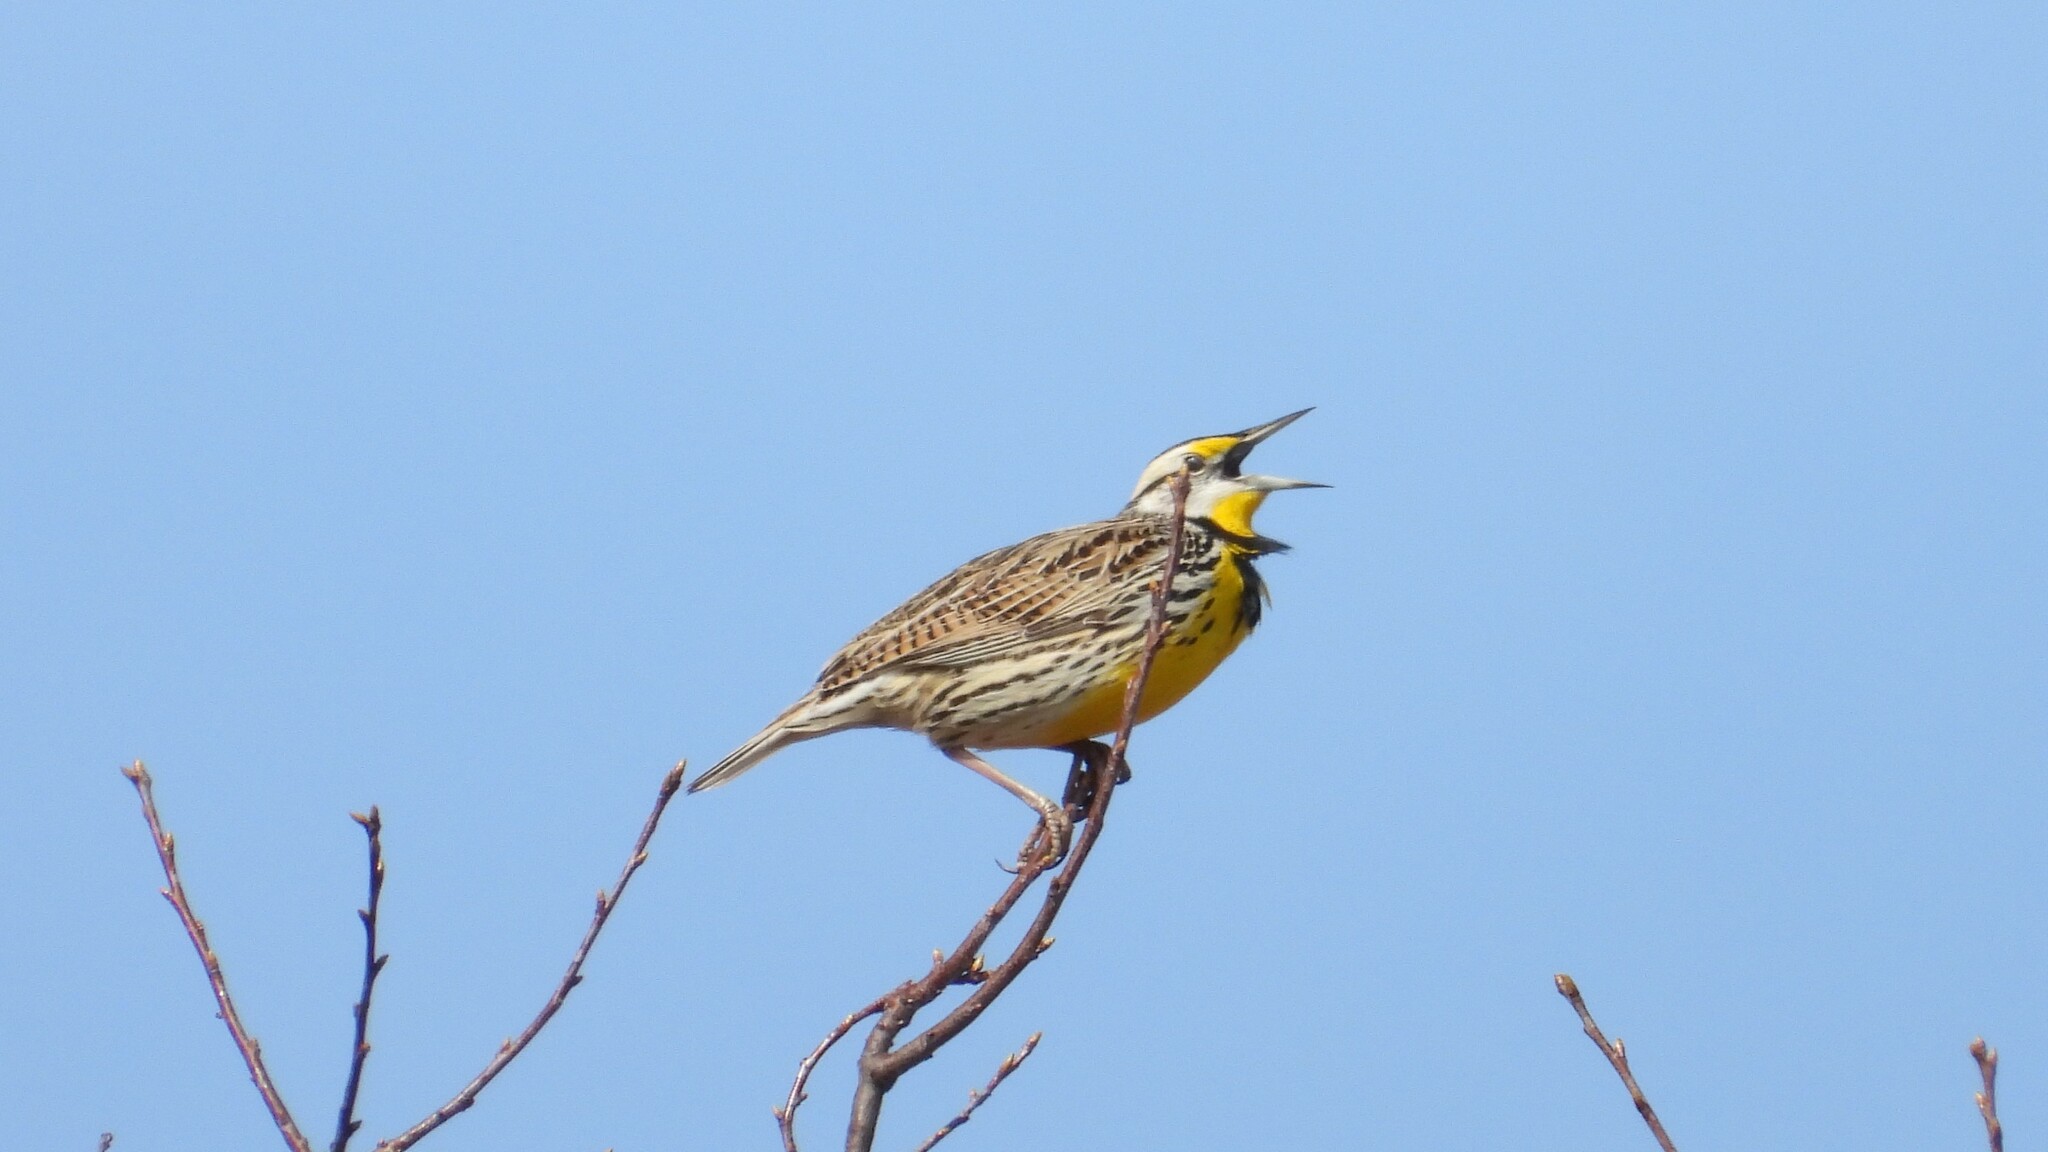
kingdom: Animalia
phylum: Chordata
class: Aves
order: Passeriformes
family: Icteridae
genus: Sturnella
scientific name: Sturnella magna
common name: Eastern meadowlark
